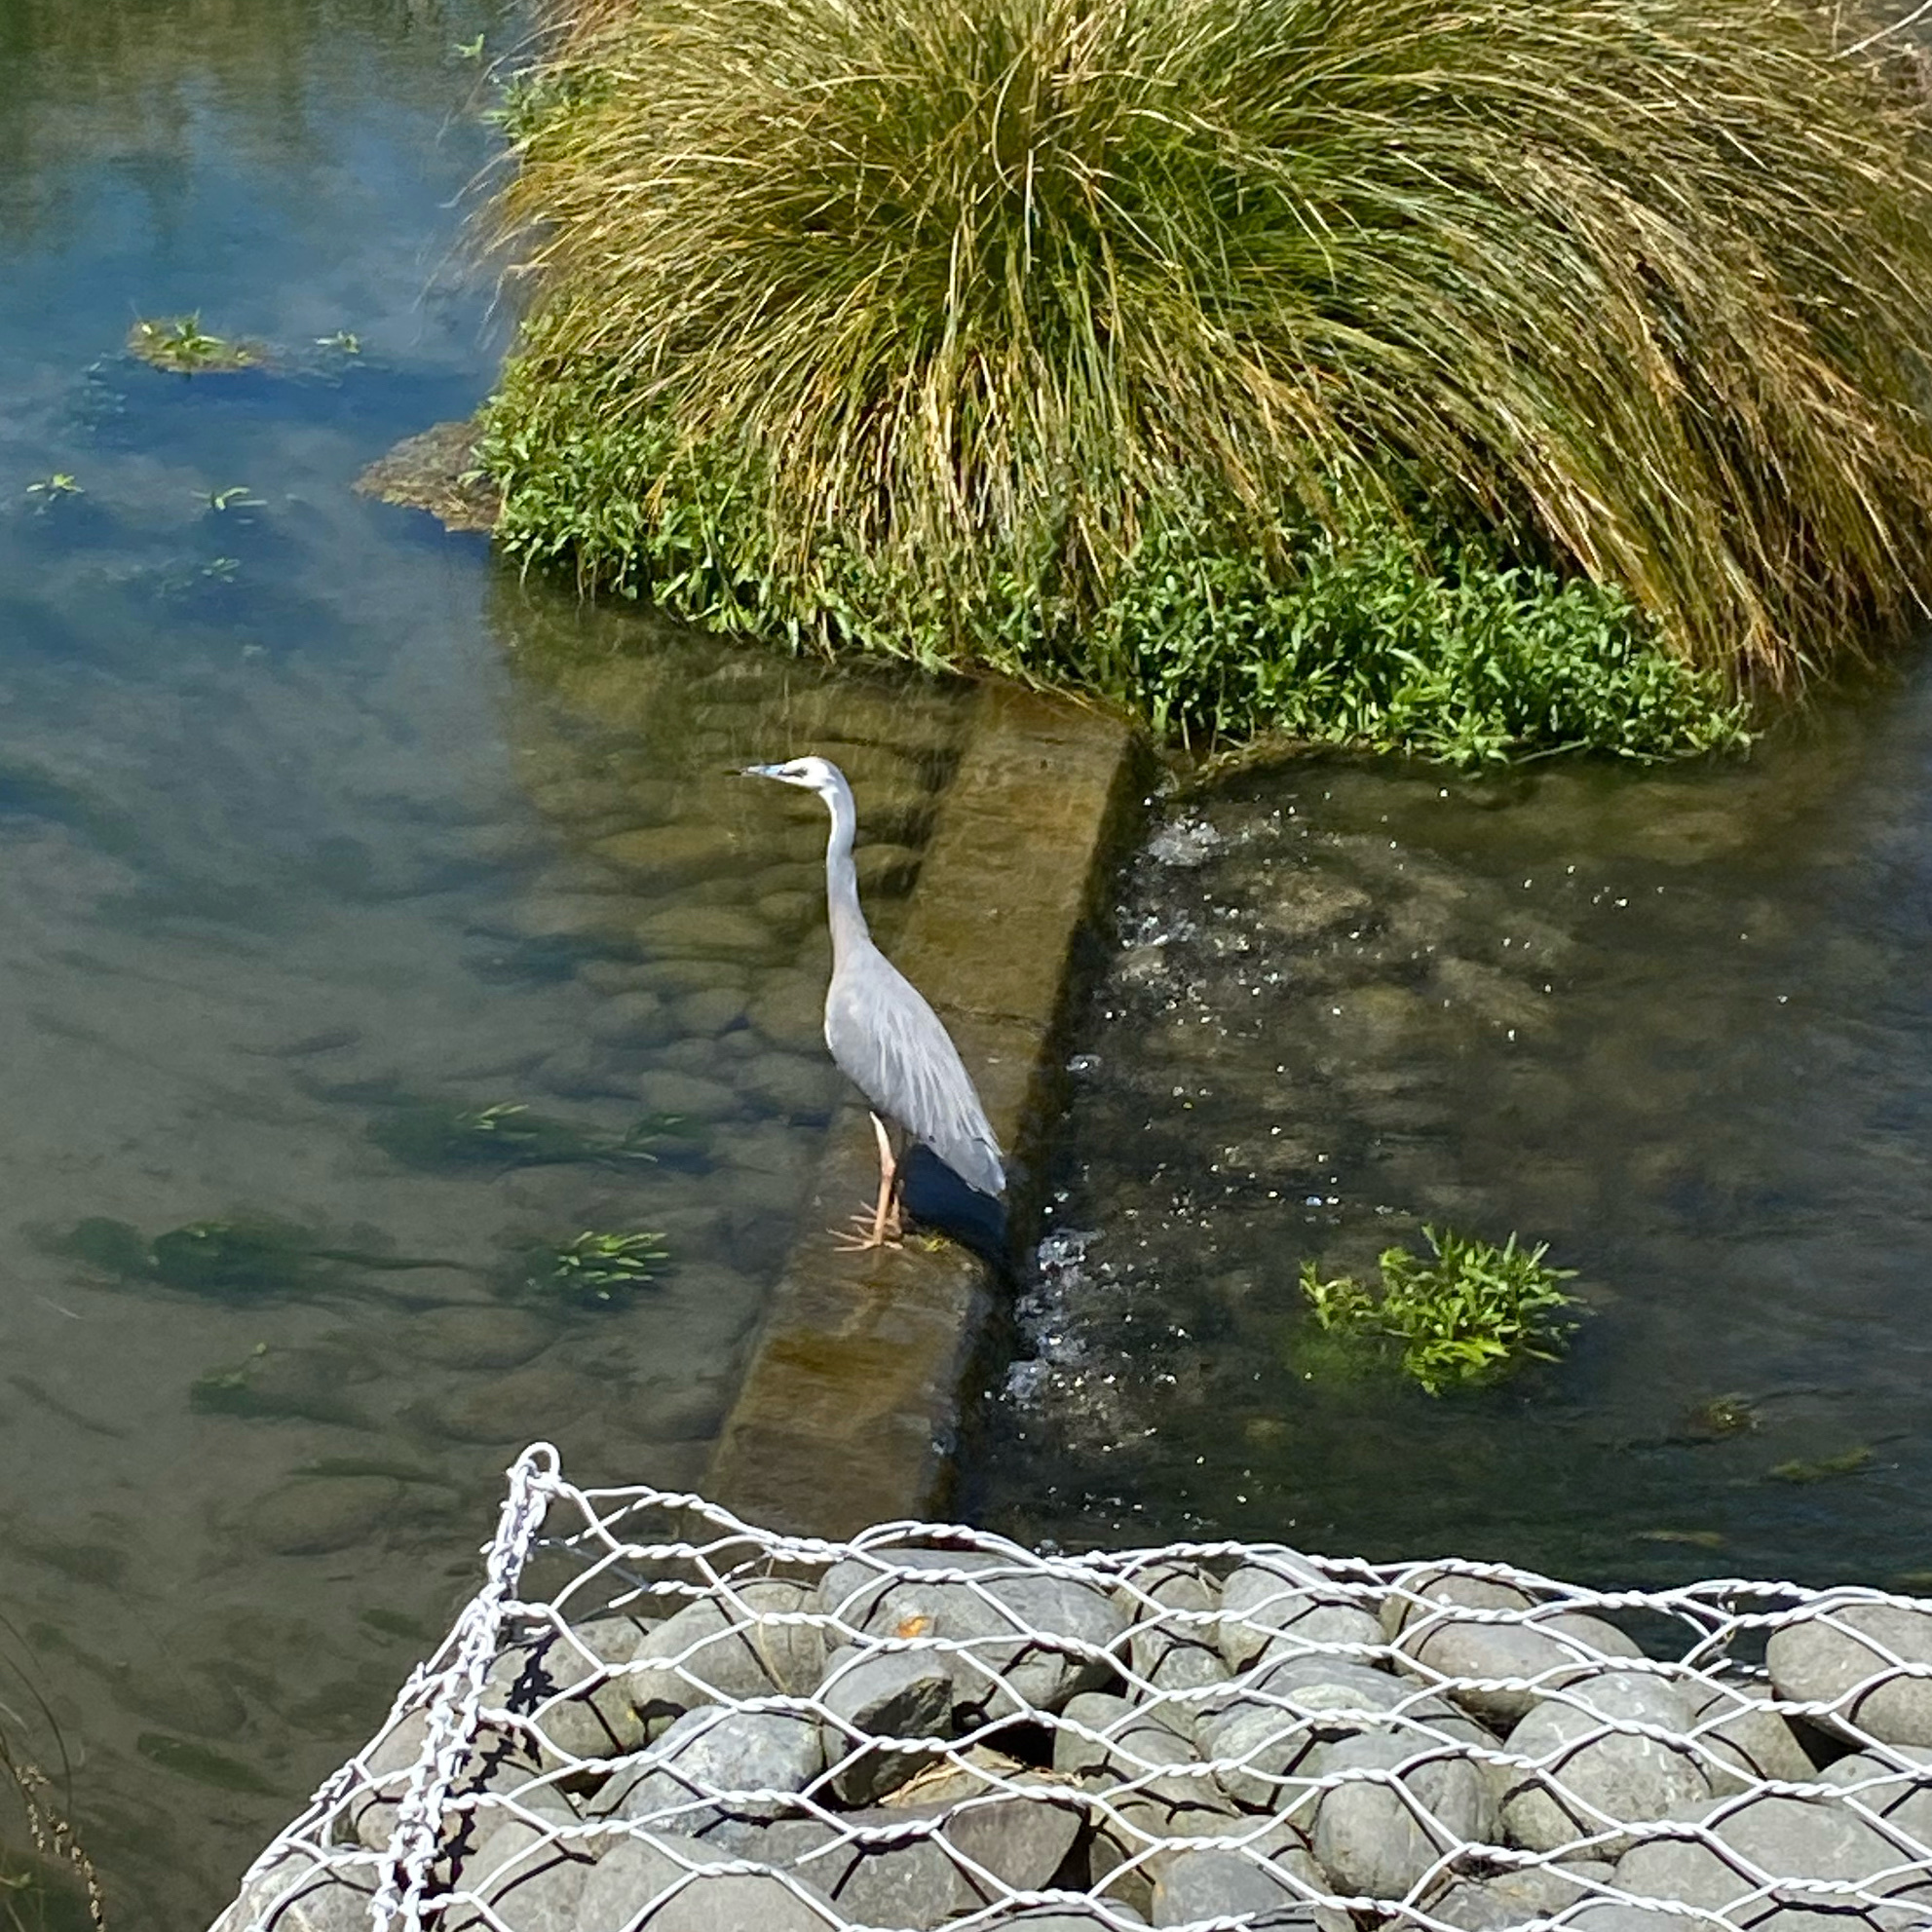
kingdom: Animalia
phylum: Chordata
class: Aves
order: Pelecaniformes
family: Ardeidae
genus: Egretta
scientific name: Egretta novaehollandiae
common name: White-faced heron
